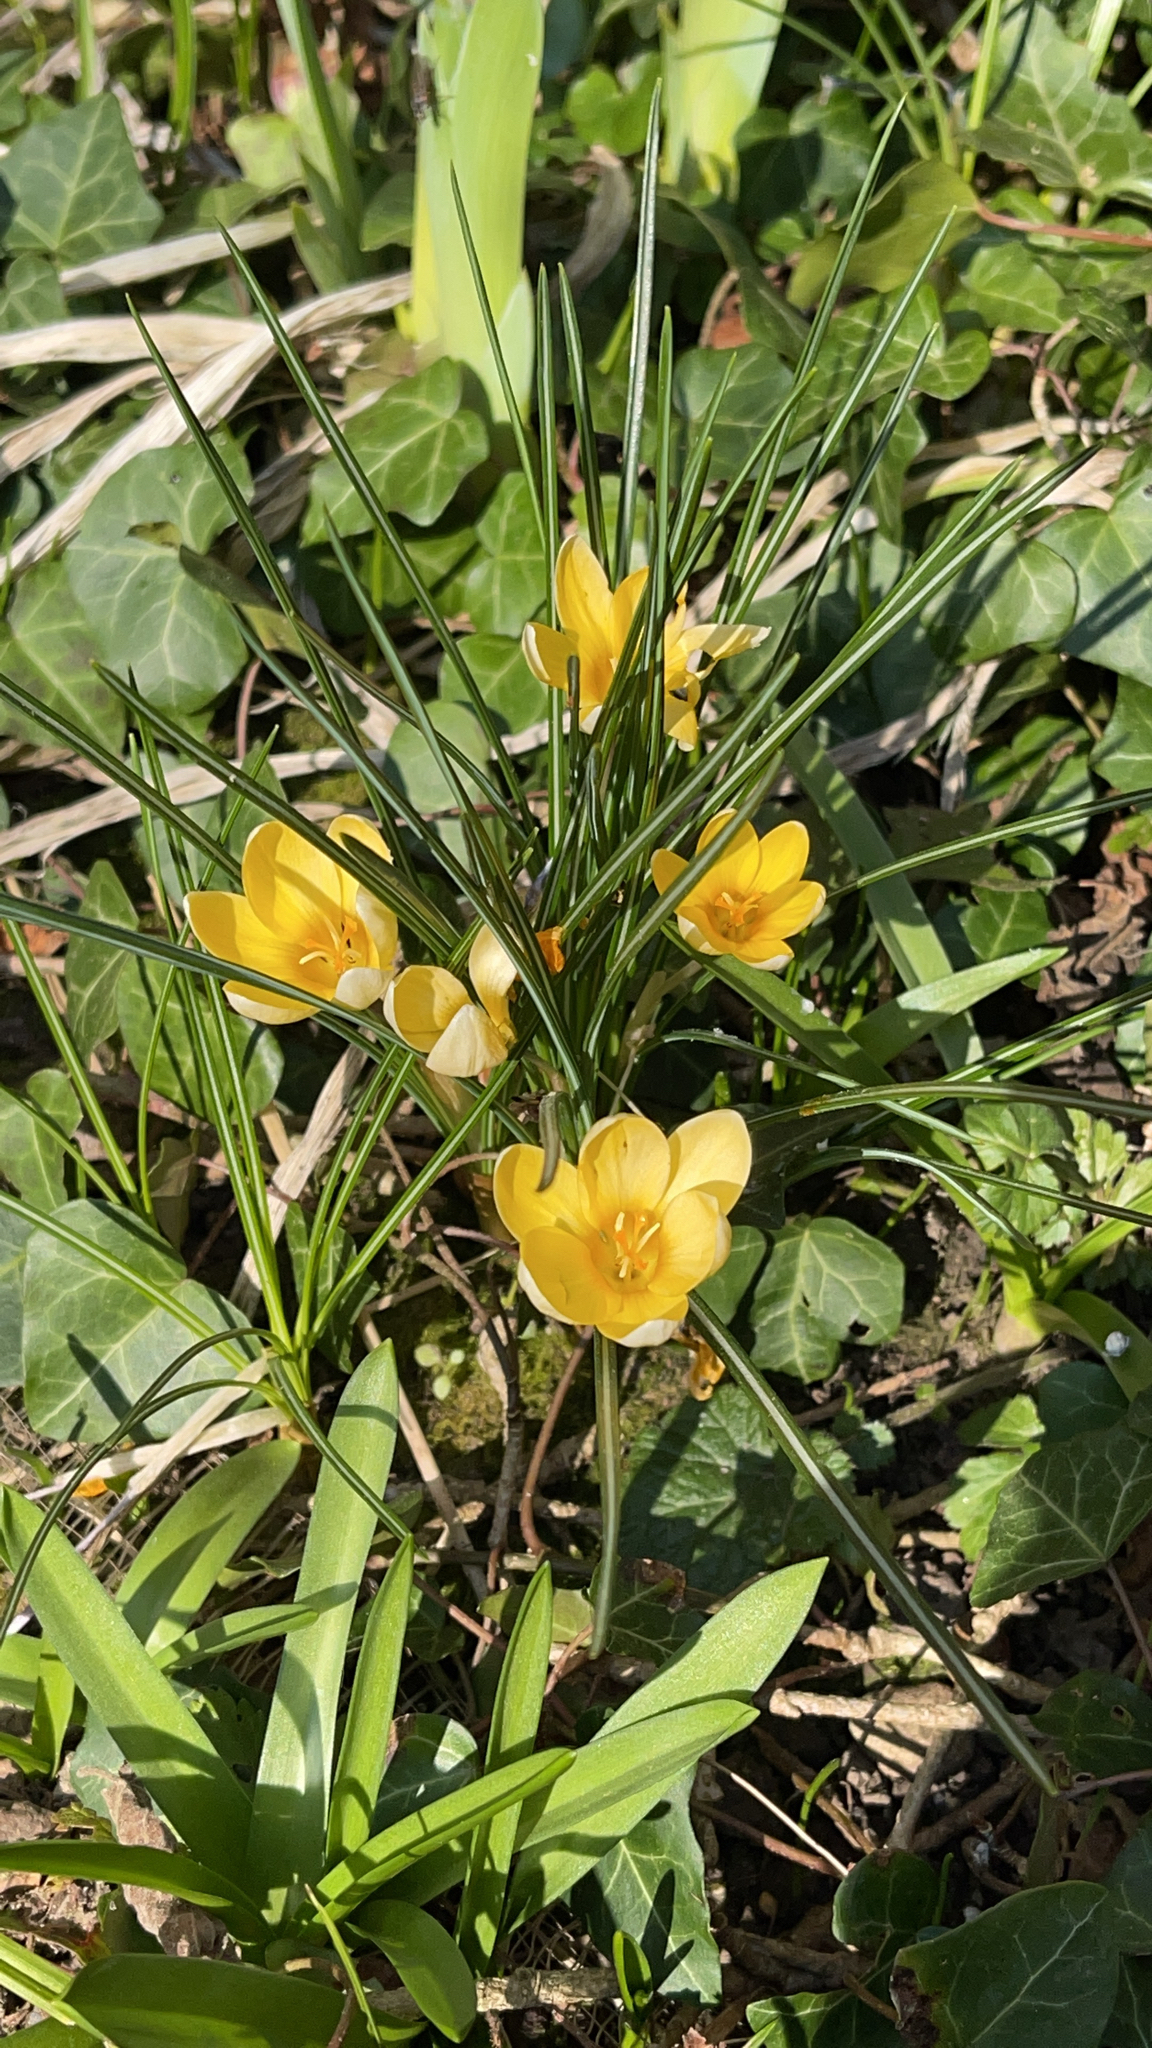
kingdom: Plantae
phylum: Tracheophyta
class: Liliopsida
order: Asparagales
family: Iridaceae
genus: Crocus
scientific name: Crocus chrysanthus
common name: Golden crocus
